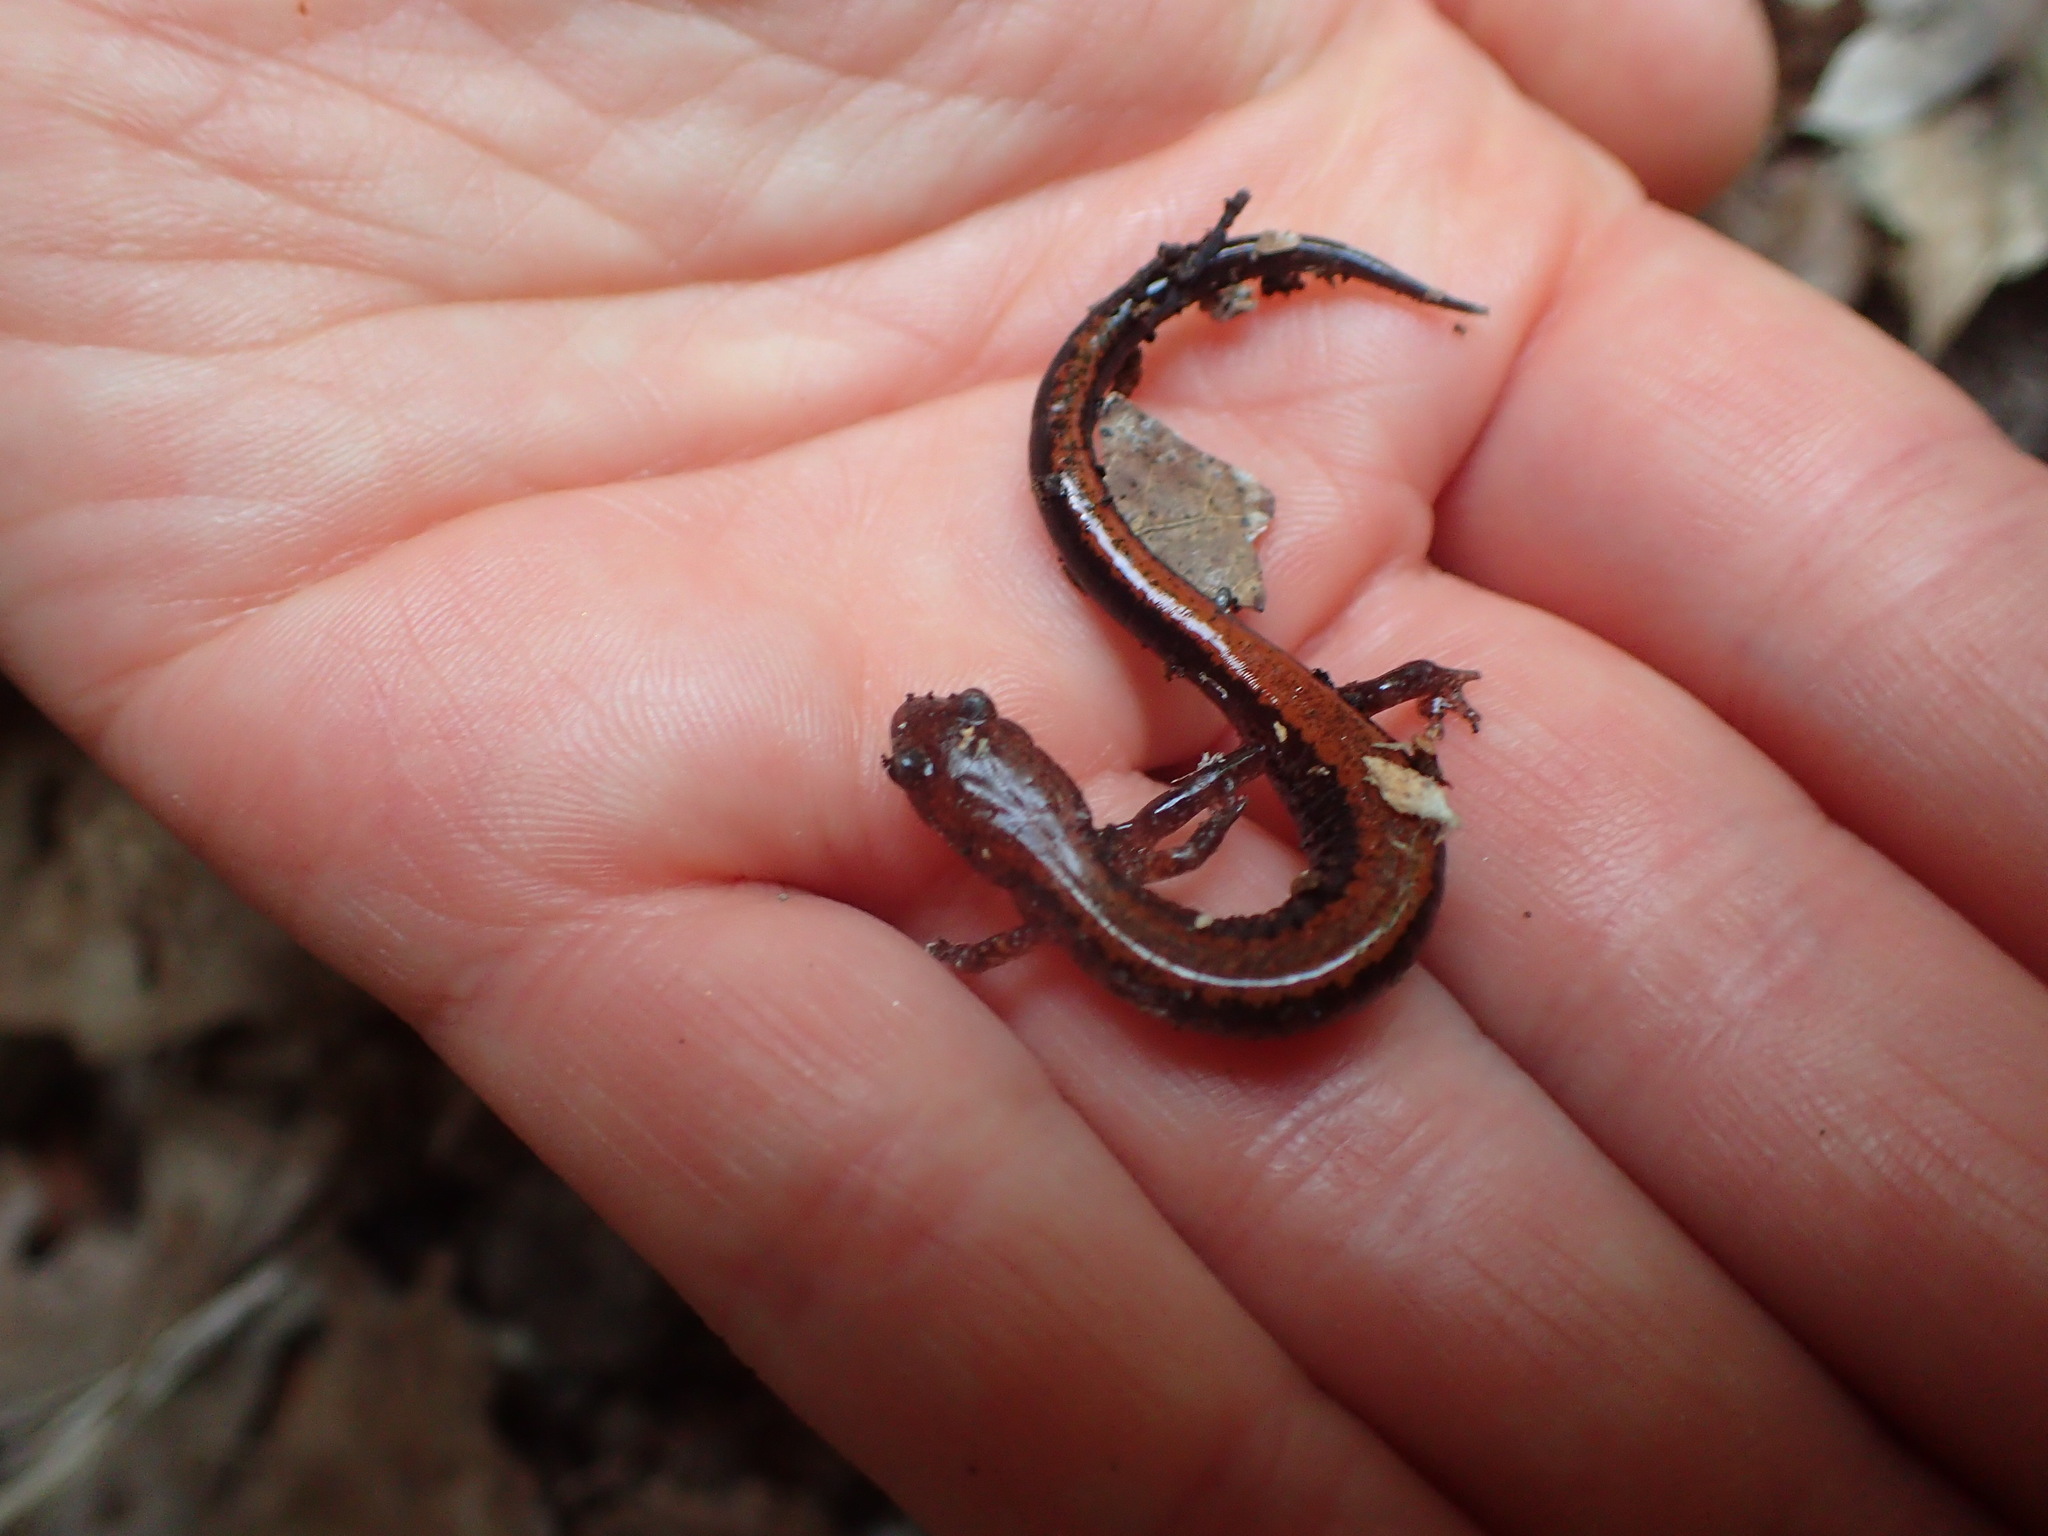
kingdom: Animalia
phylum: Chordata
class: Amphibia
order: Caudata
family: Plethodontidae
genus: Plethodon
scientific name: Plethodon cinereus
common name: Redback salamander
